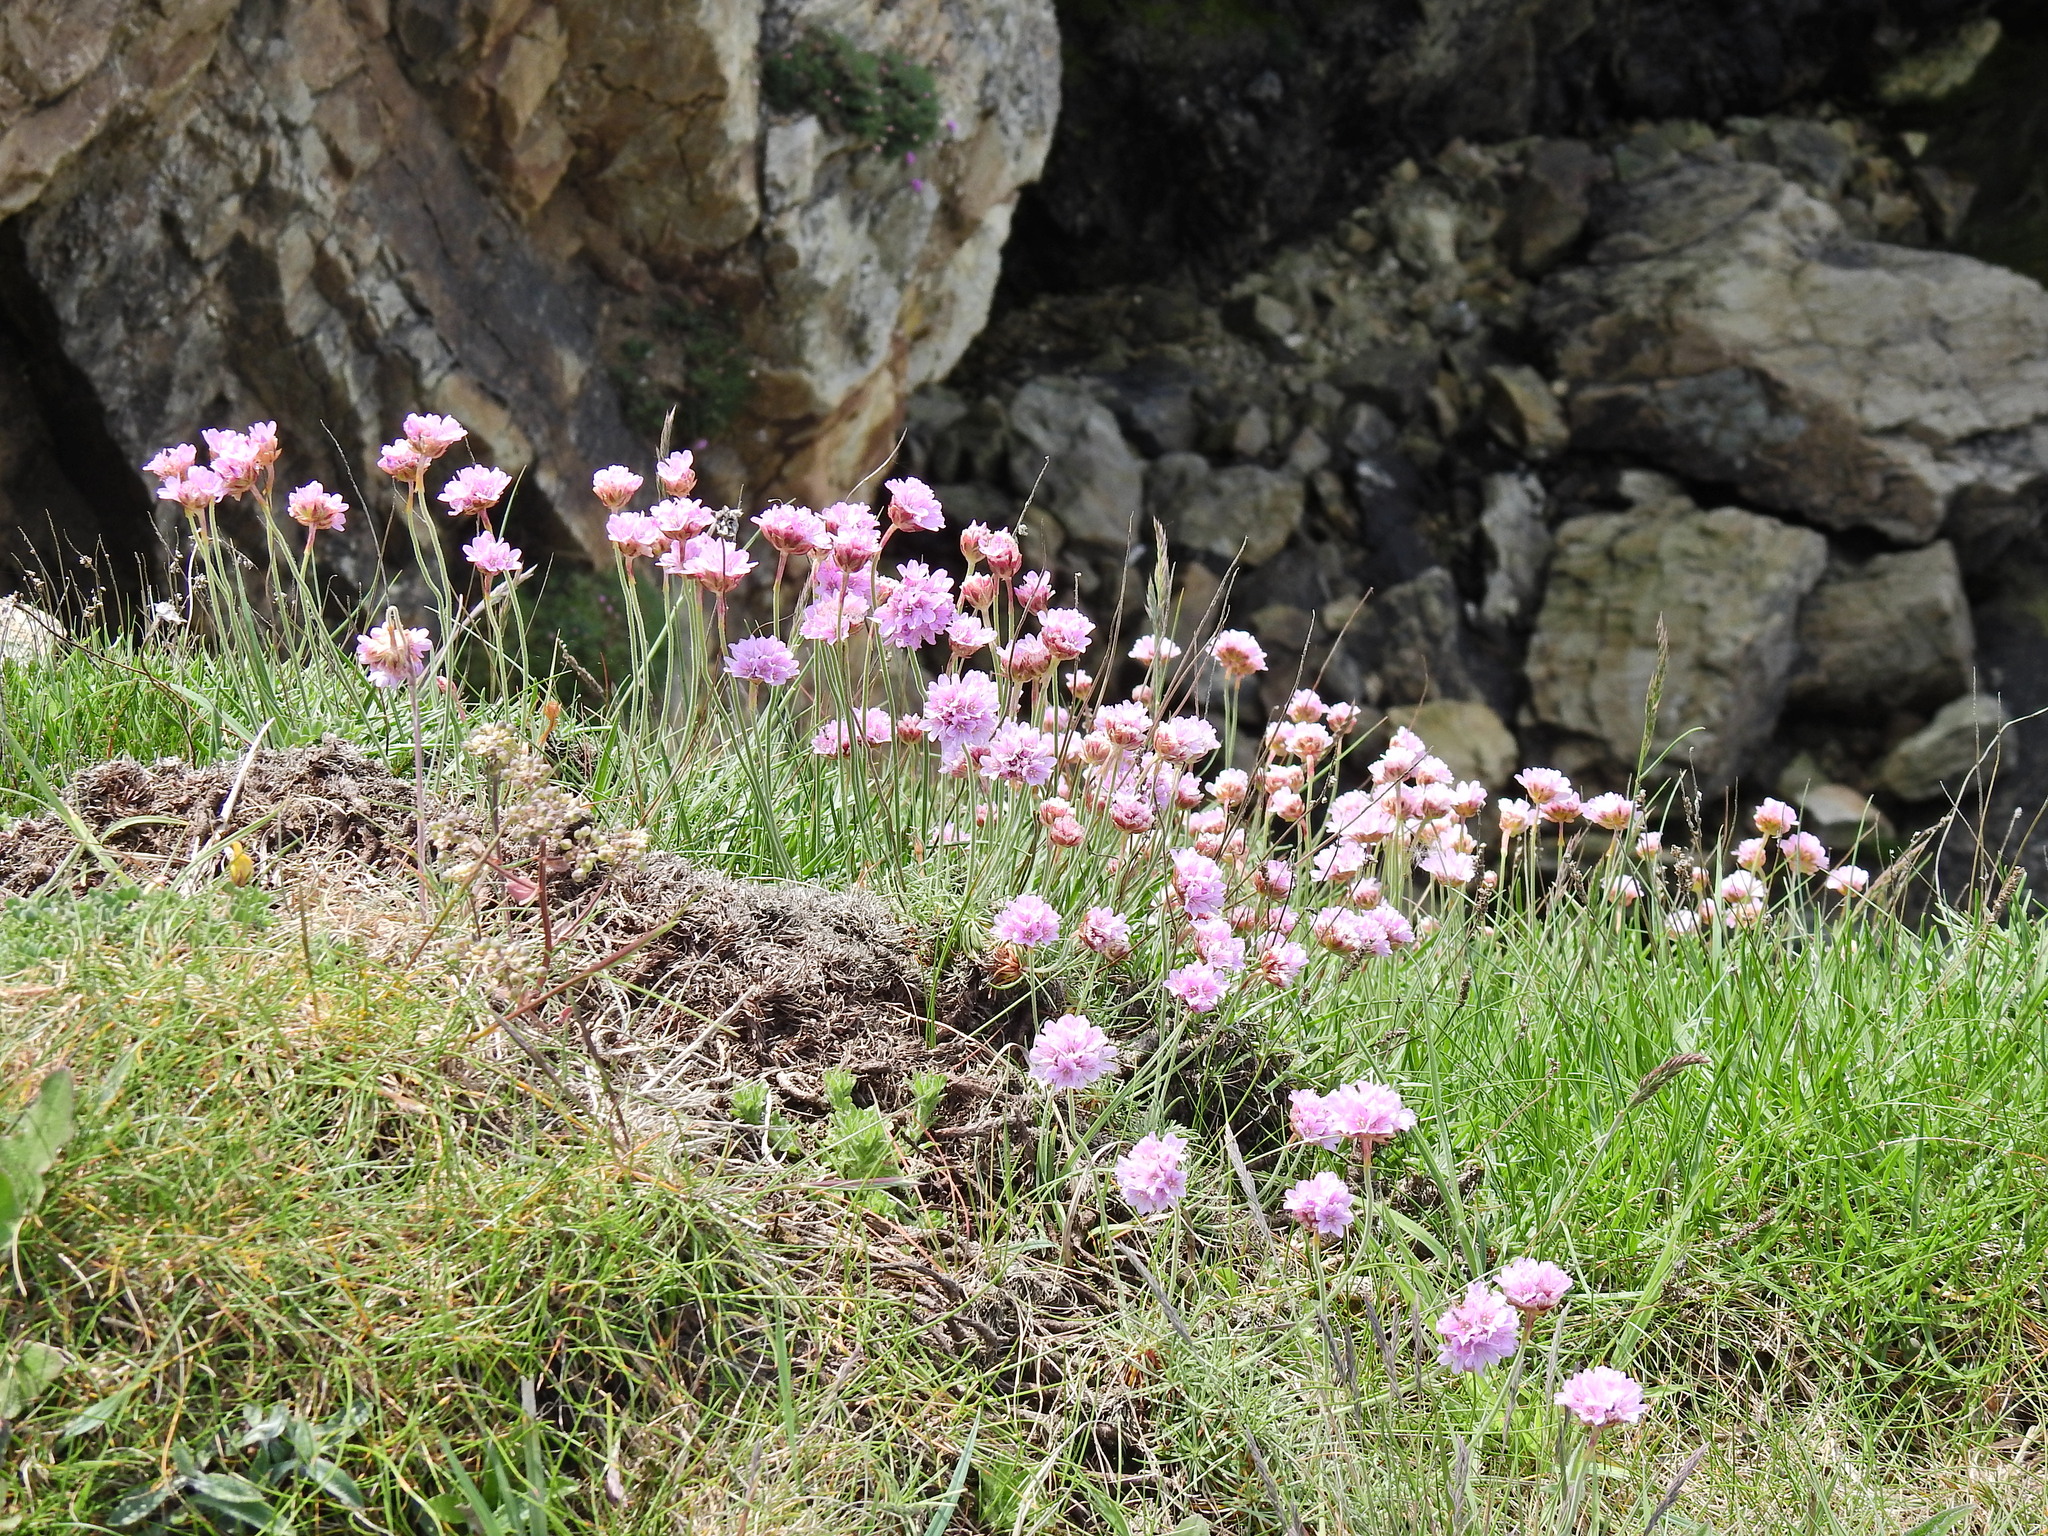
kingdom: Plantae
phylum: Tracheophyta
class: Magnoliopsida
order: Caryophyllales
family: Plumbaginaceae
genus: Armeria
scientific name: Armeria maritima
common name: Thrift
